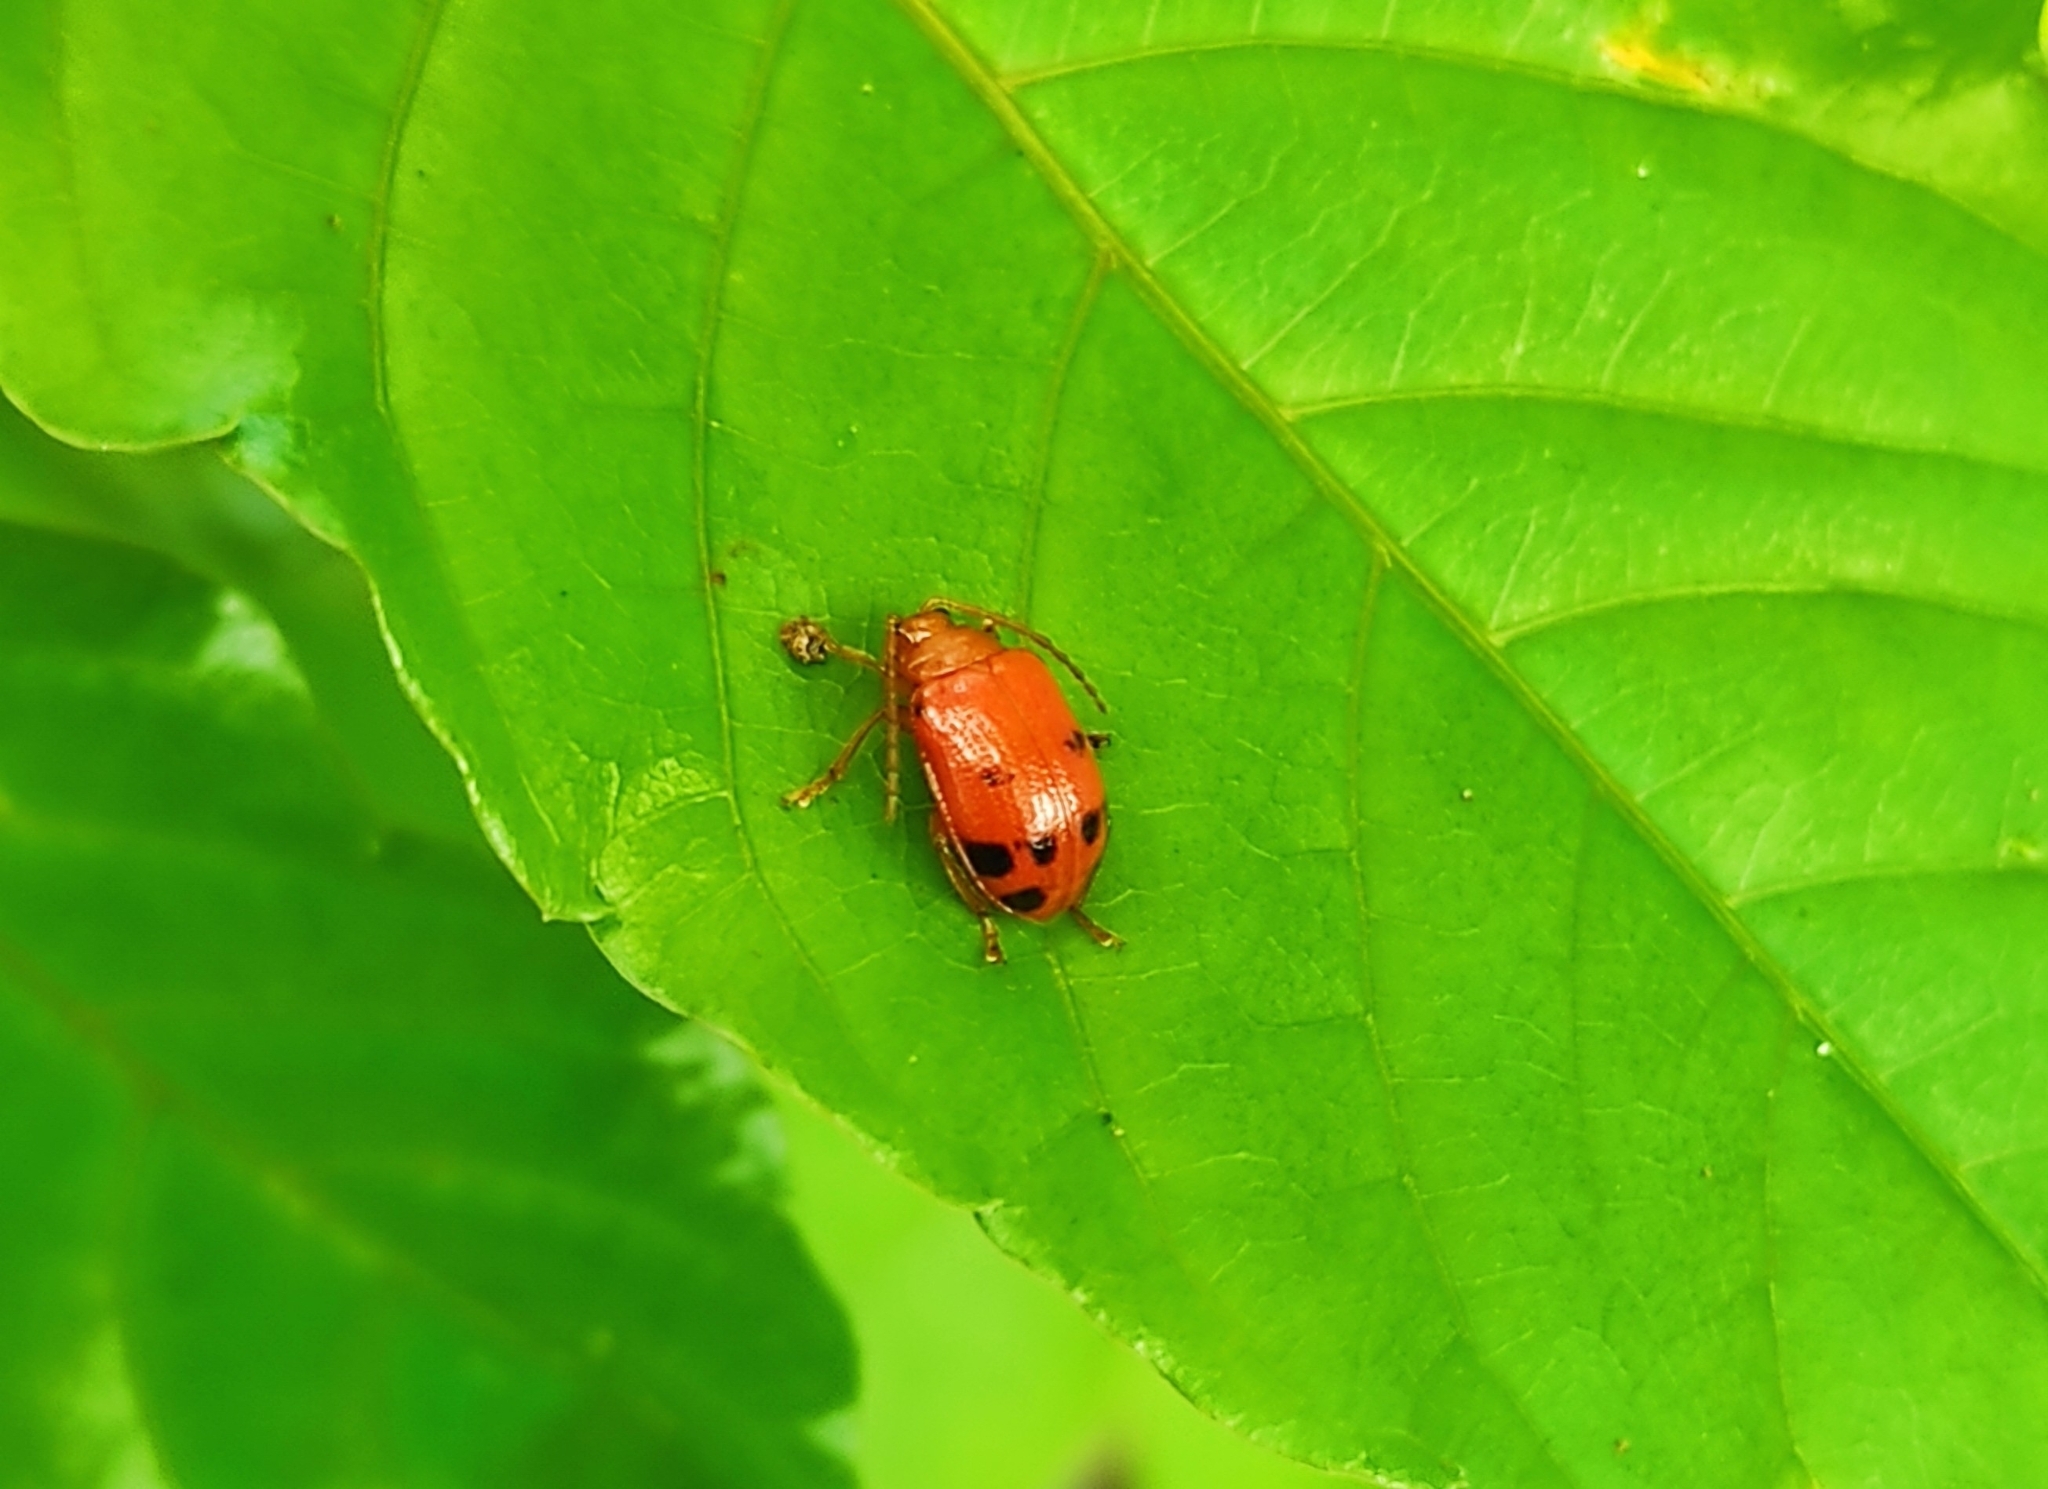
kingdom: Animalia
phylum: Arthropoda
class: Insecta
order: Coleoptera
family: Chrysomelidae
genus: Sphenoraia
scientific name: Sphenoraia
